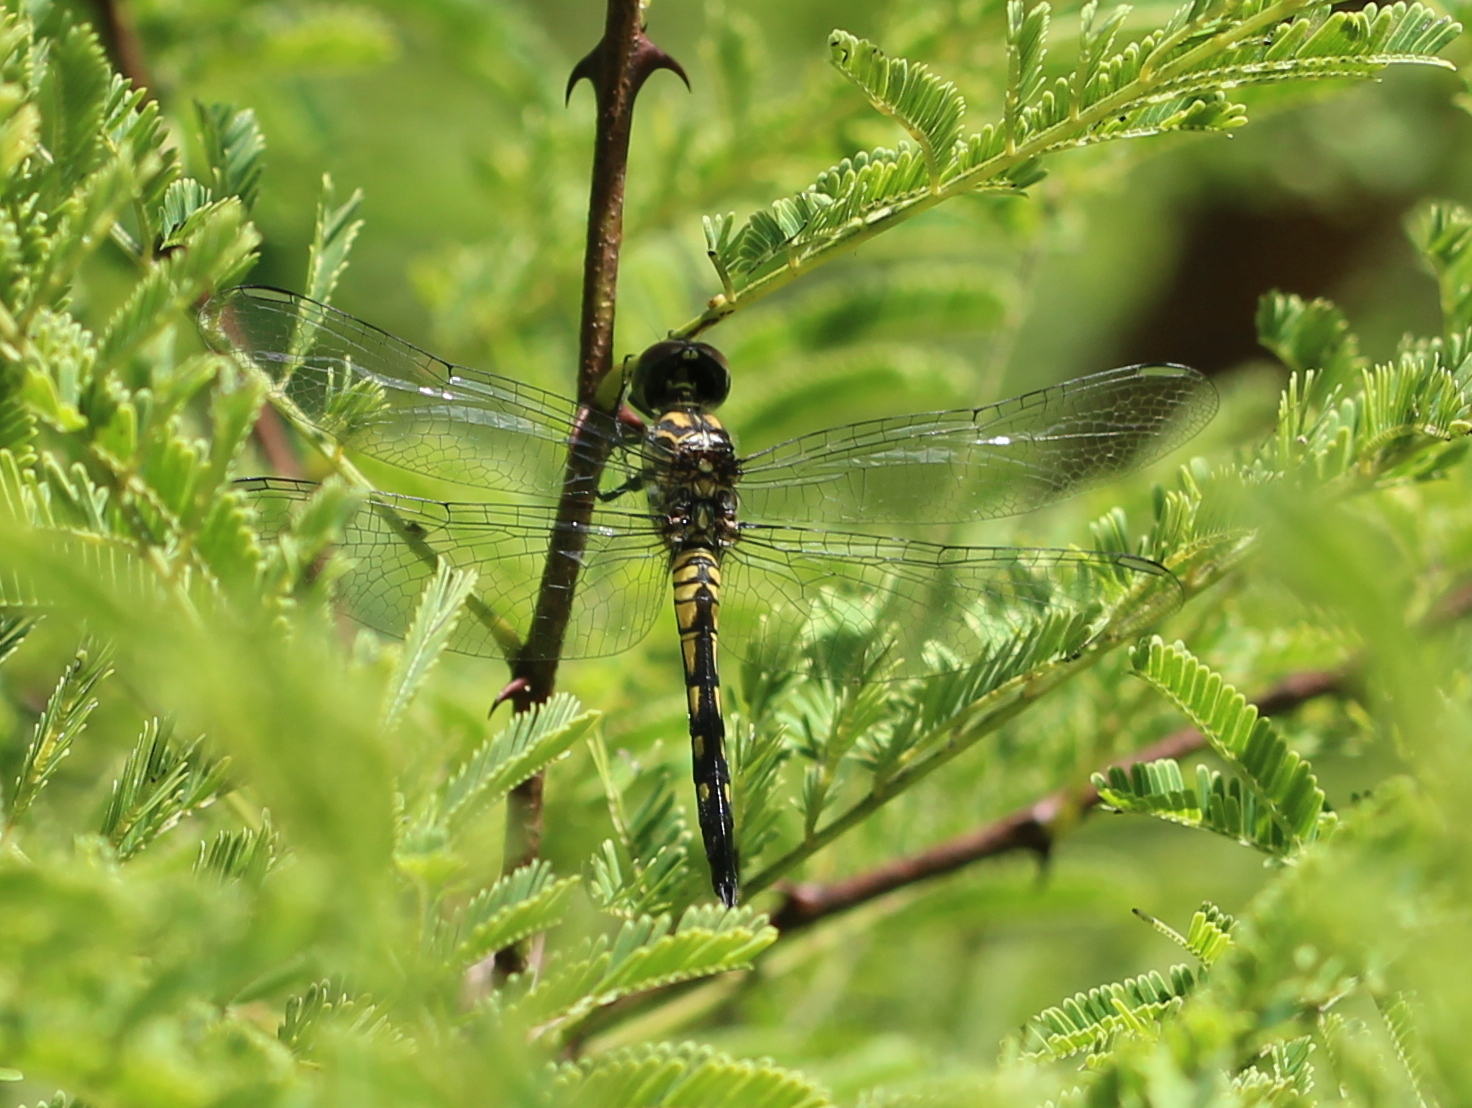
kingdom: Animalia
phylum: Arthropoda
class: Insecta
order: Odonata
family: Libellulidae
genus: Trithemis
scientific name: Trithemis festiva
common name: Indigo dropwing
